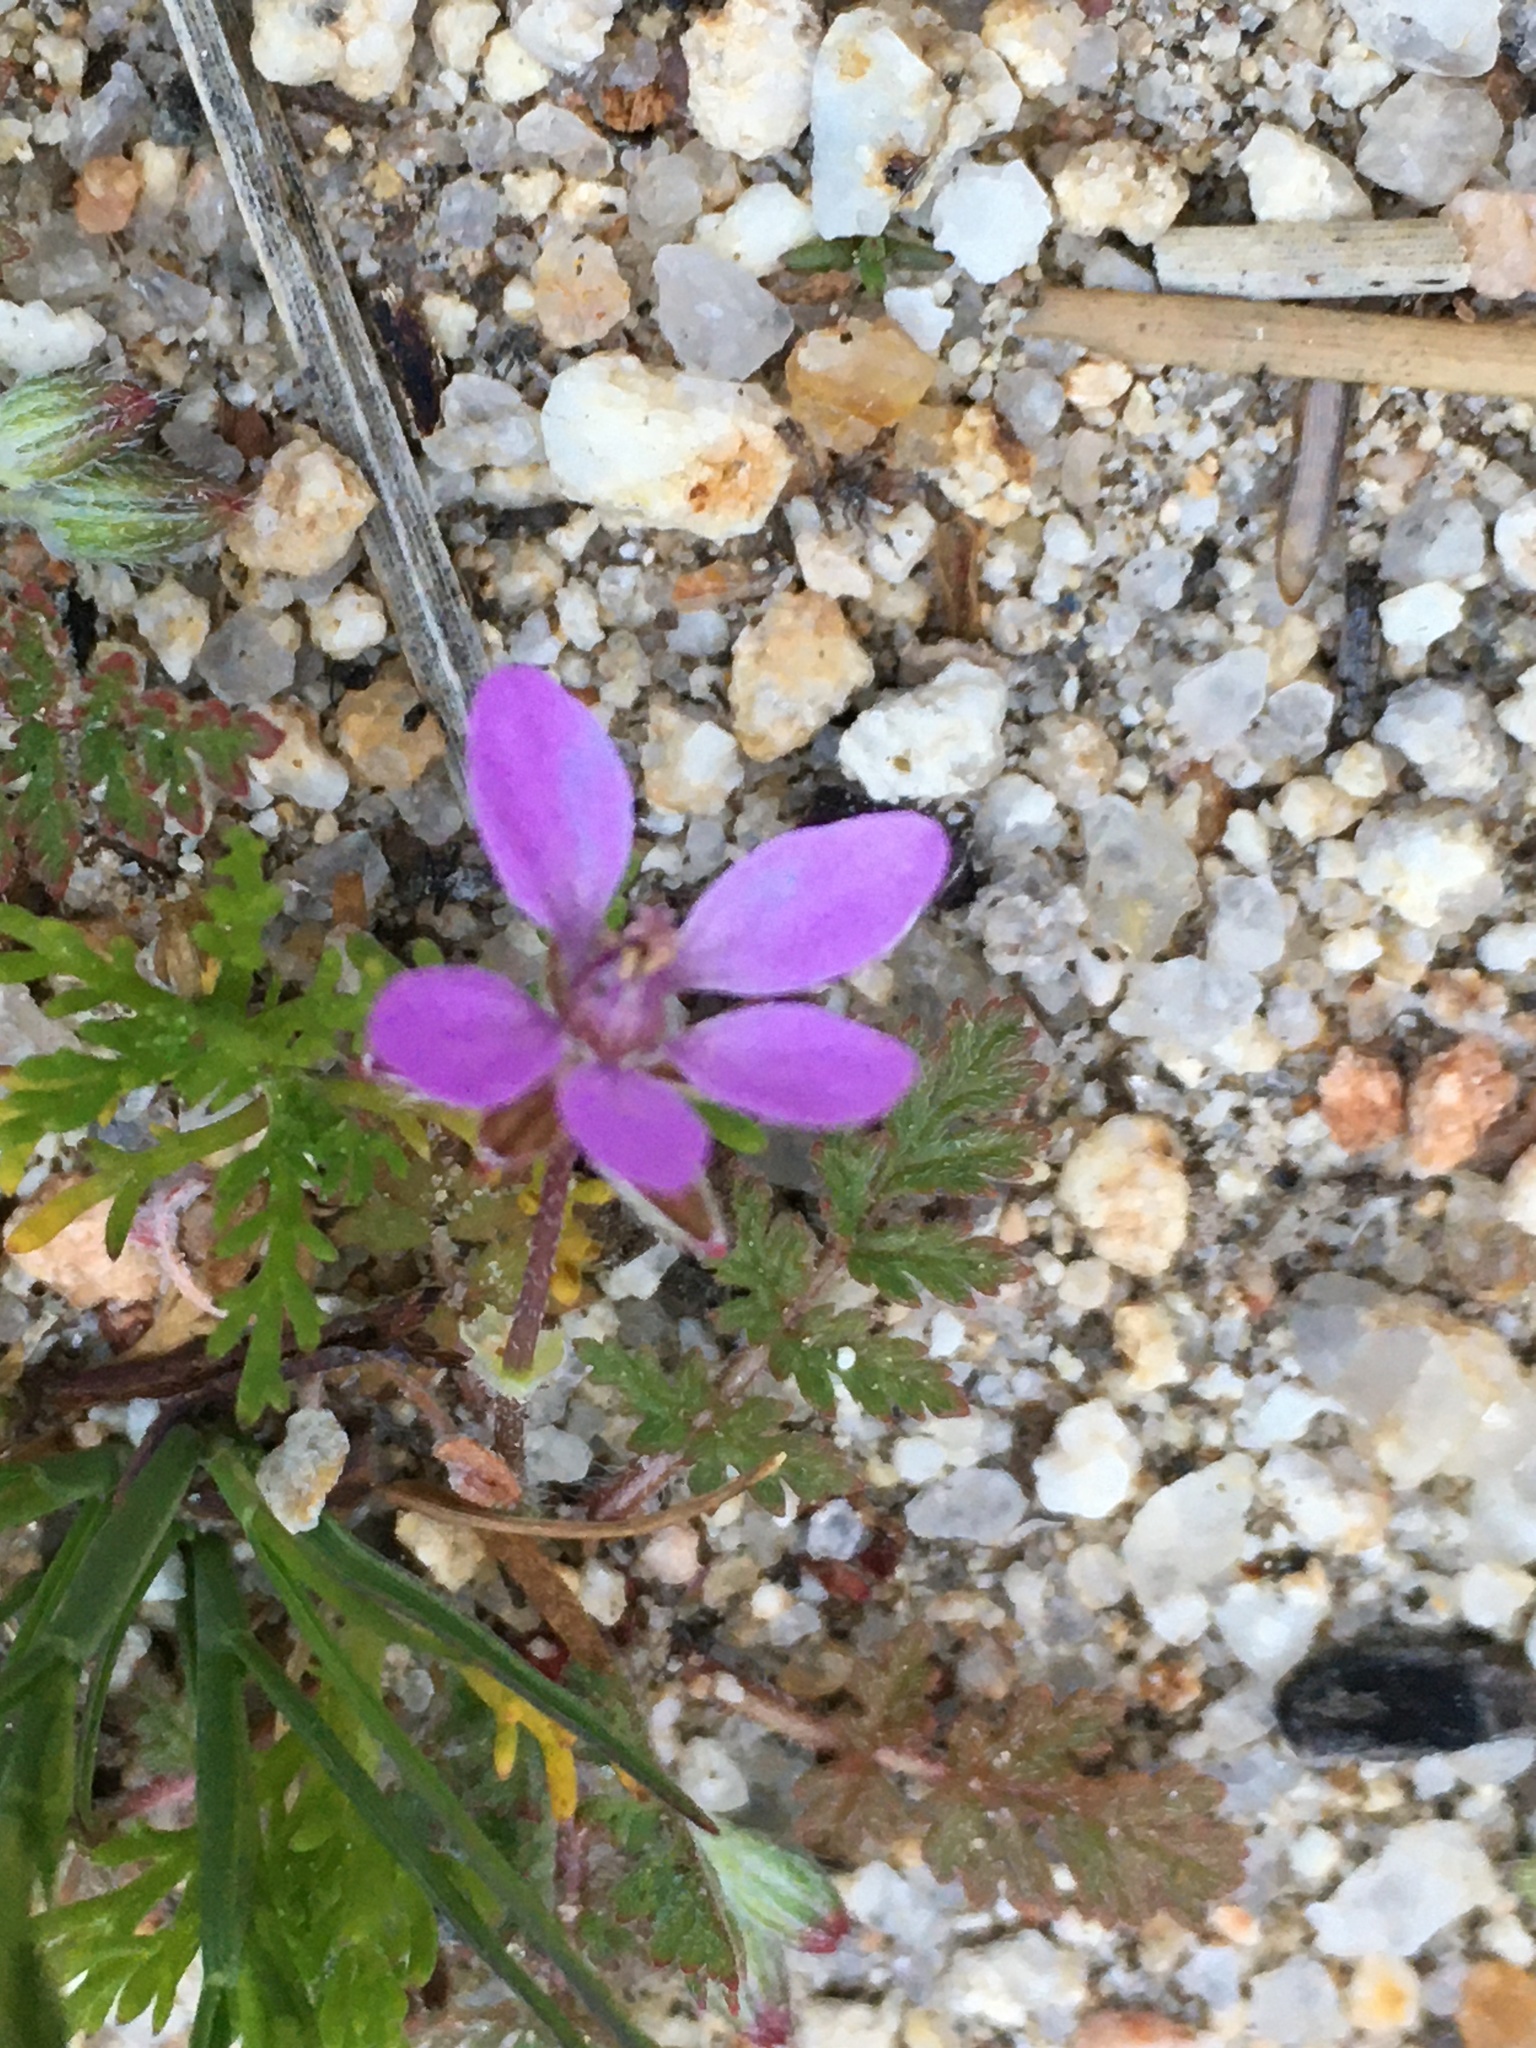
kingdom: Plantae
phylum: Tracheophyta
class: Magnoliopsida
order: Geraniales
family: Geraniaceae
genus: Erodium
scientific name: Erodium cicutarium
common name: Common stork's-bill
